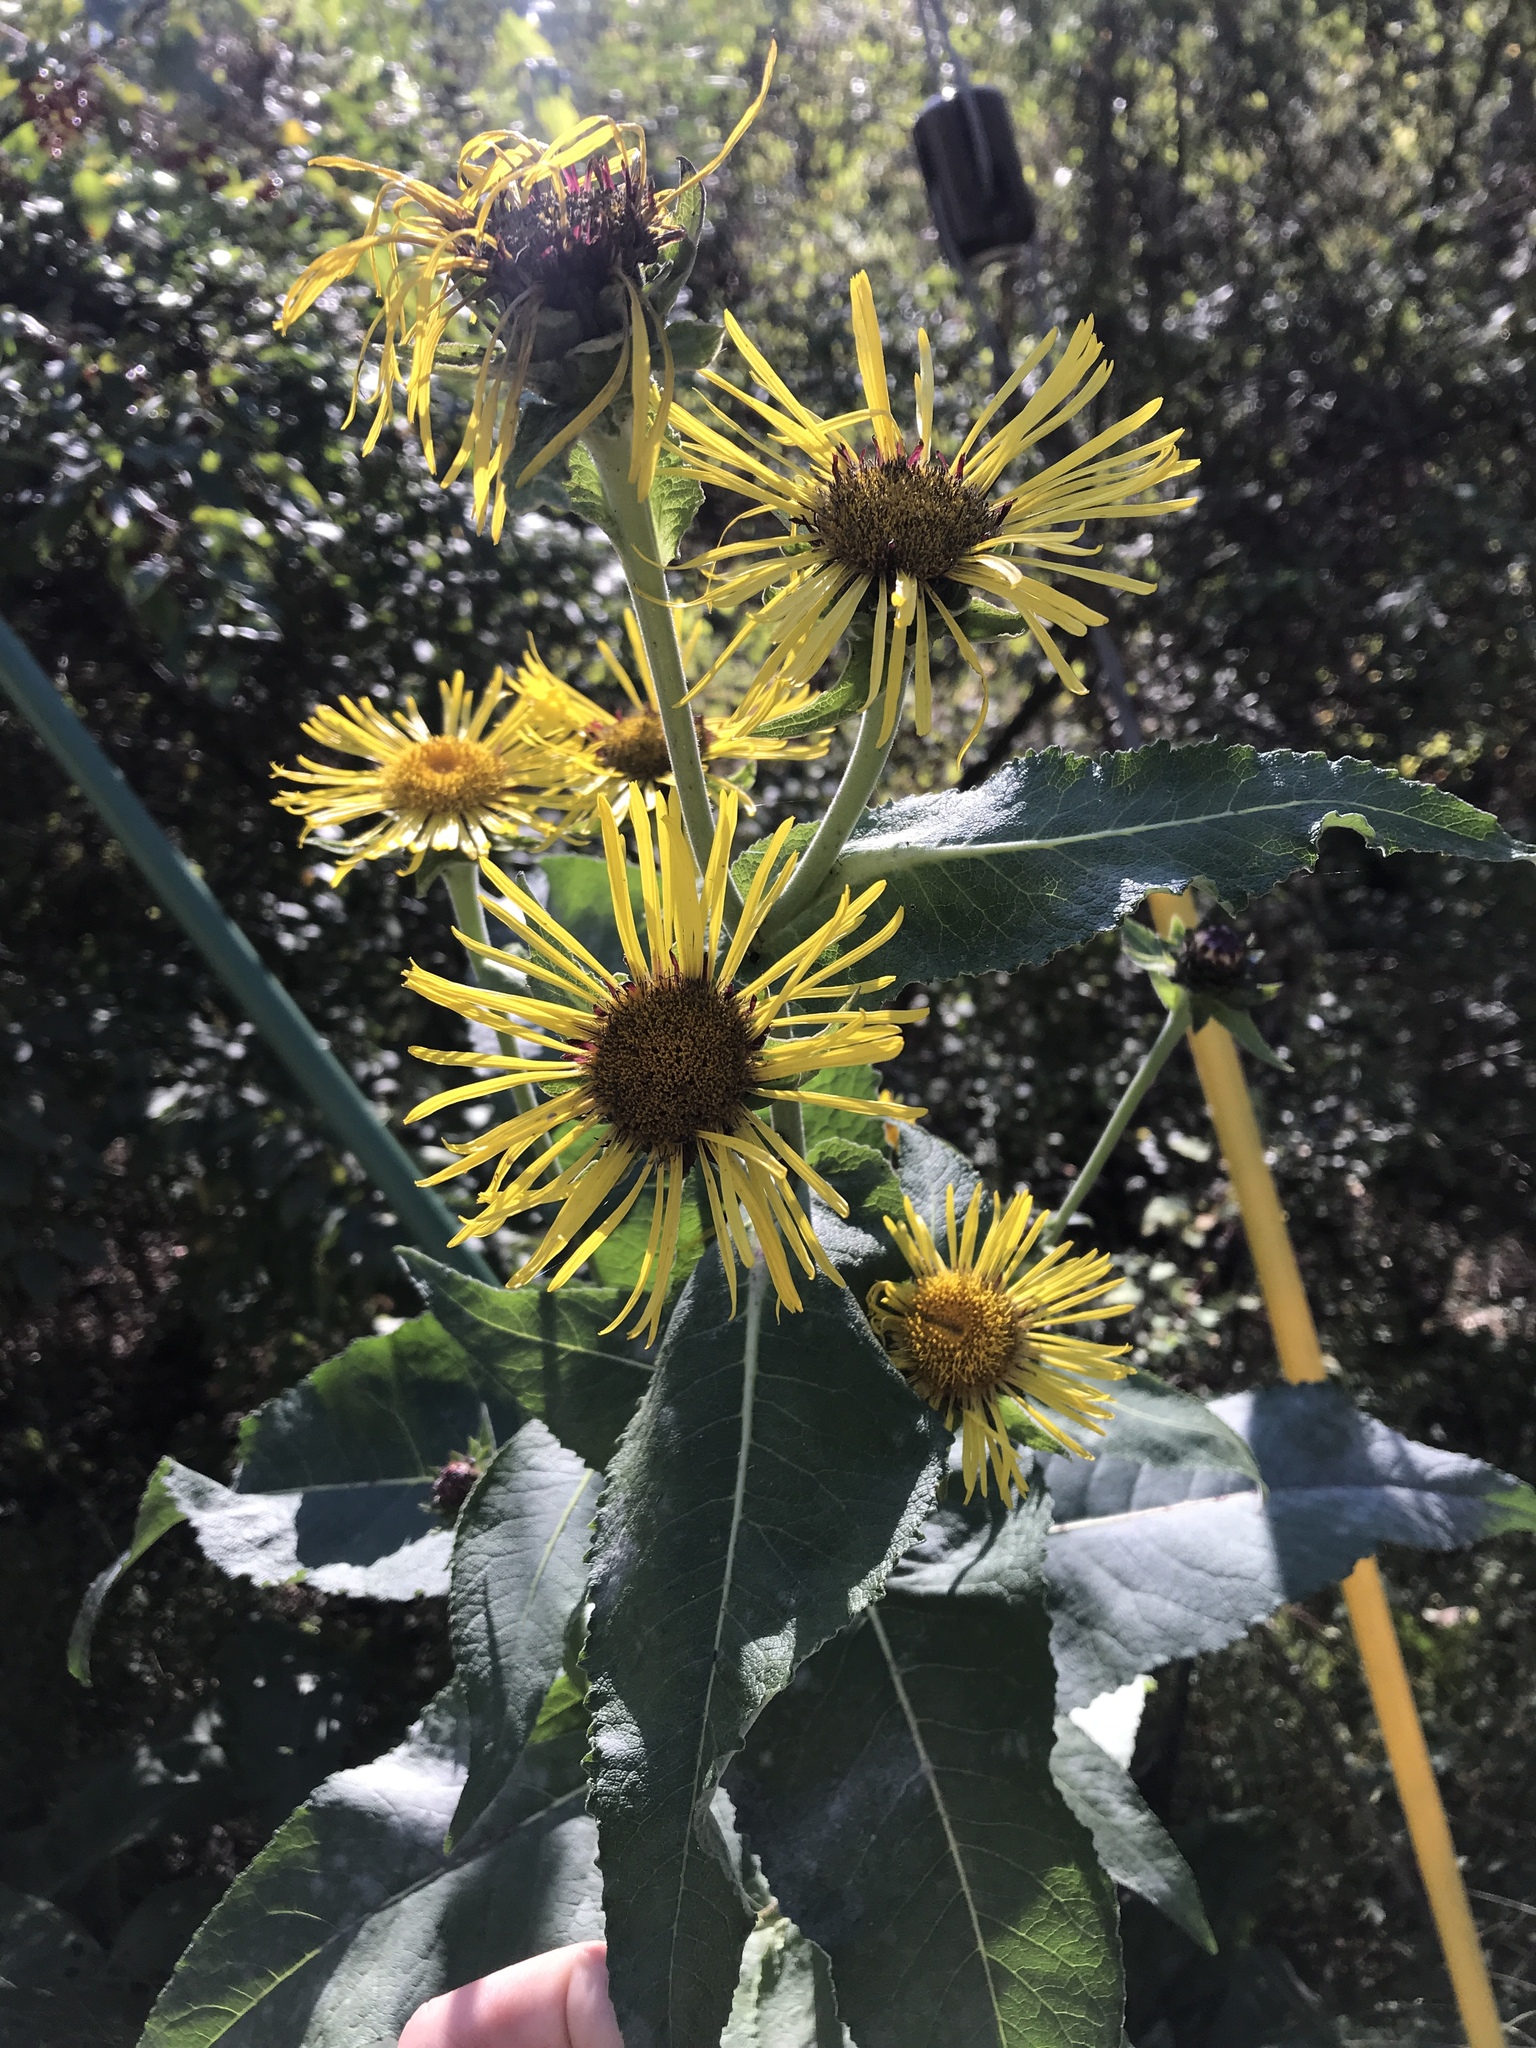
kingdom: Plantae
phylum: Tracheophyta
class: Magnoliopsida
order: Asterales
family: Asteraceae
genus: Inula
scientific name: Inula helenium
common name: Elecampane
